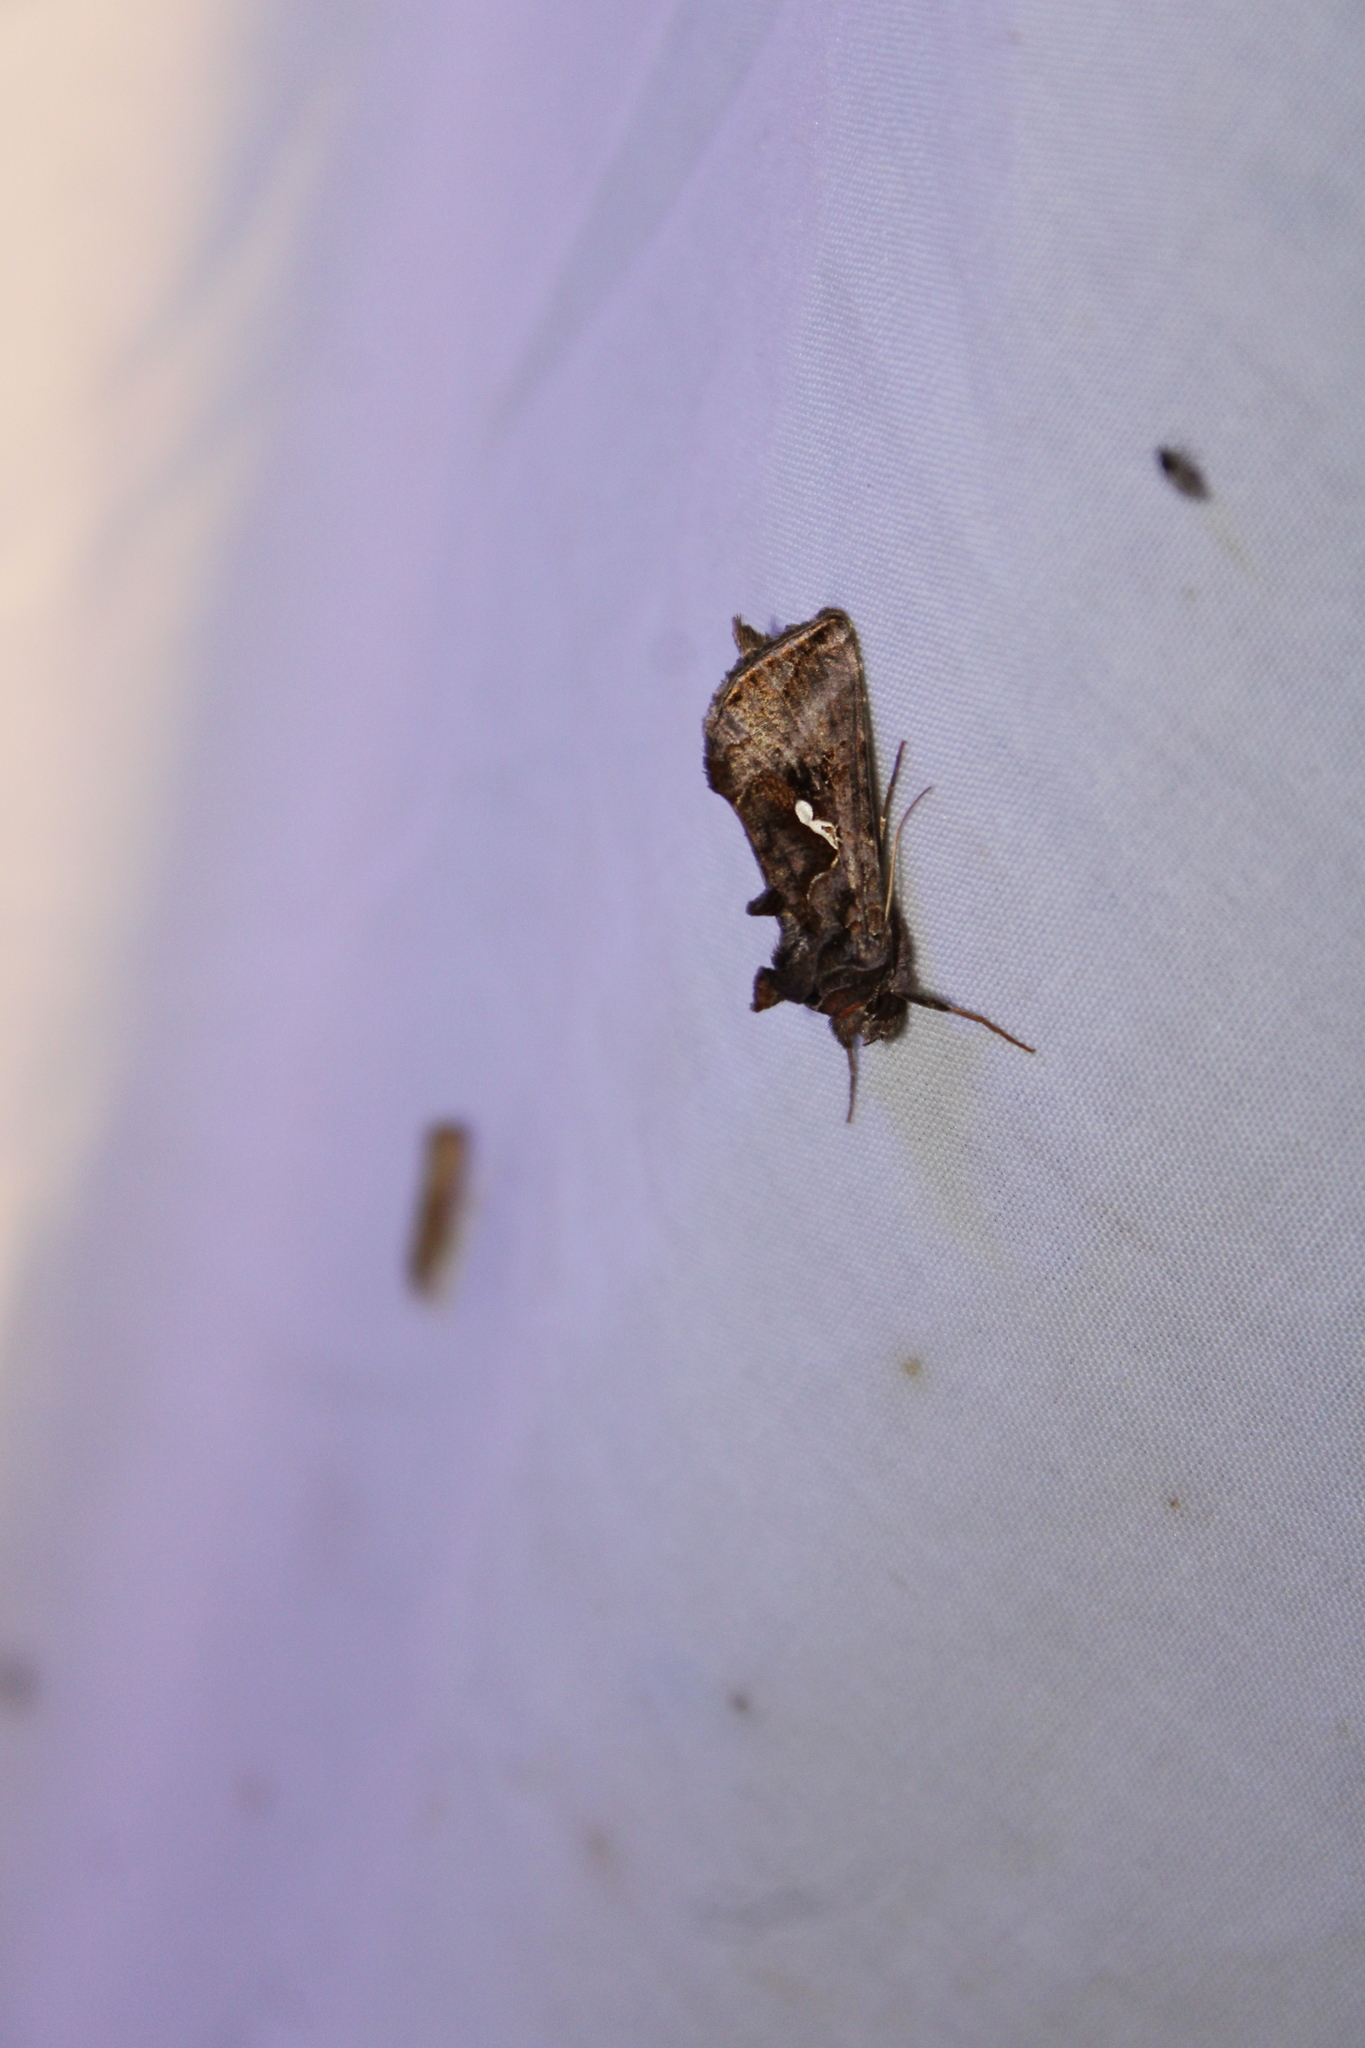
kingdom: Animalia
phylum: Arthropoda
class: Insecta
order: Lepidoptera
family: Noctuidae
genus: Autographa
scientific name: Autographa precationis
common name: Common looper moth
